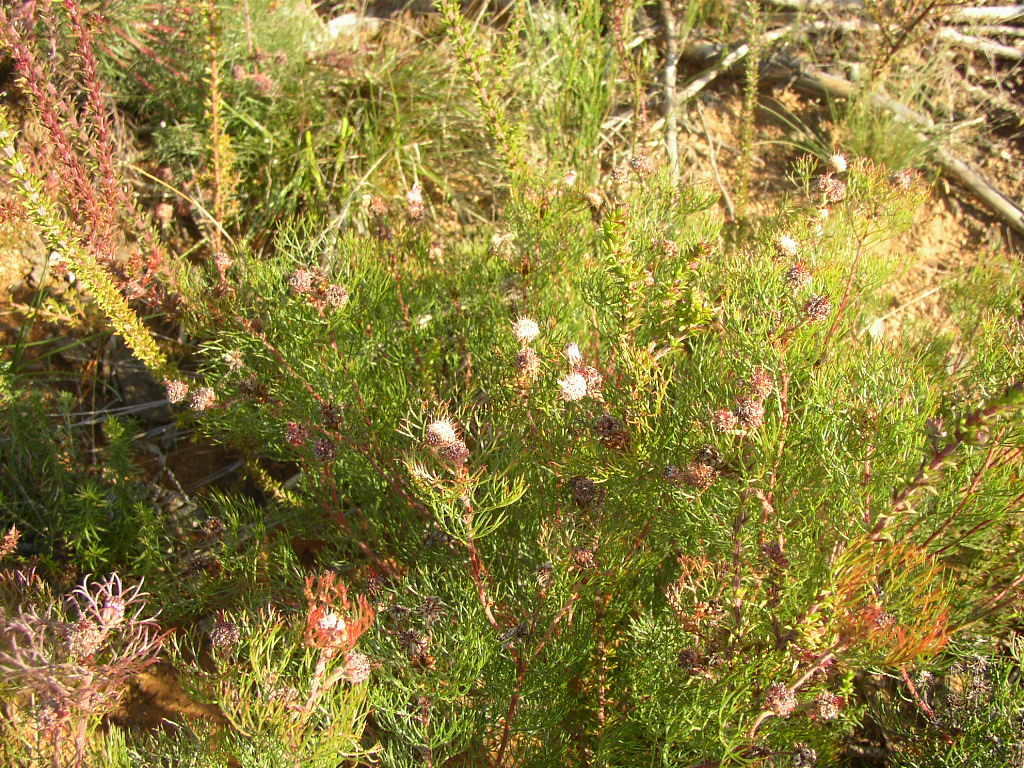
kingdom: Plantae
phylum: Tracheophyta
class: Magnoliopsida
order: Proteales
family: Proteaceae
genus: Serruria
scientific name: Serruria fasciflora
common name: Common pin spiderhead
